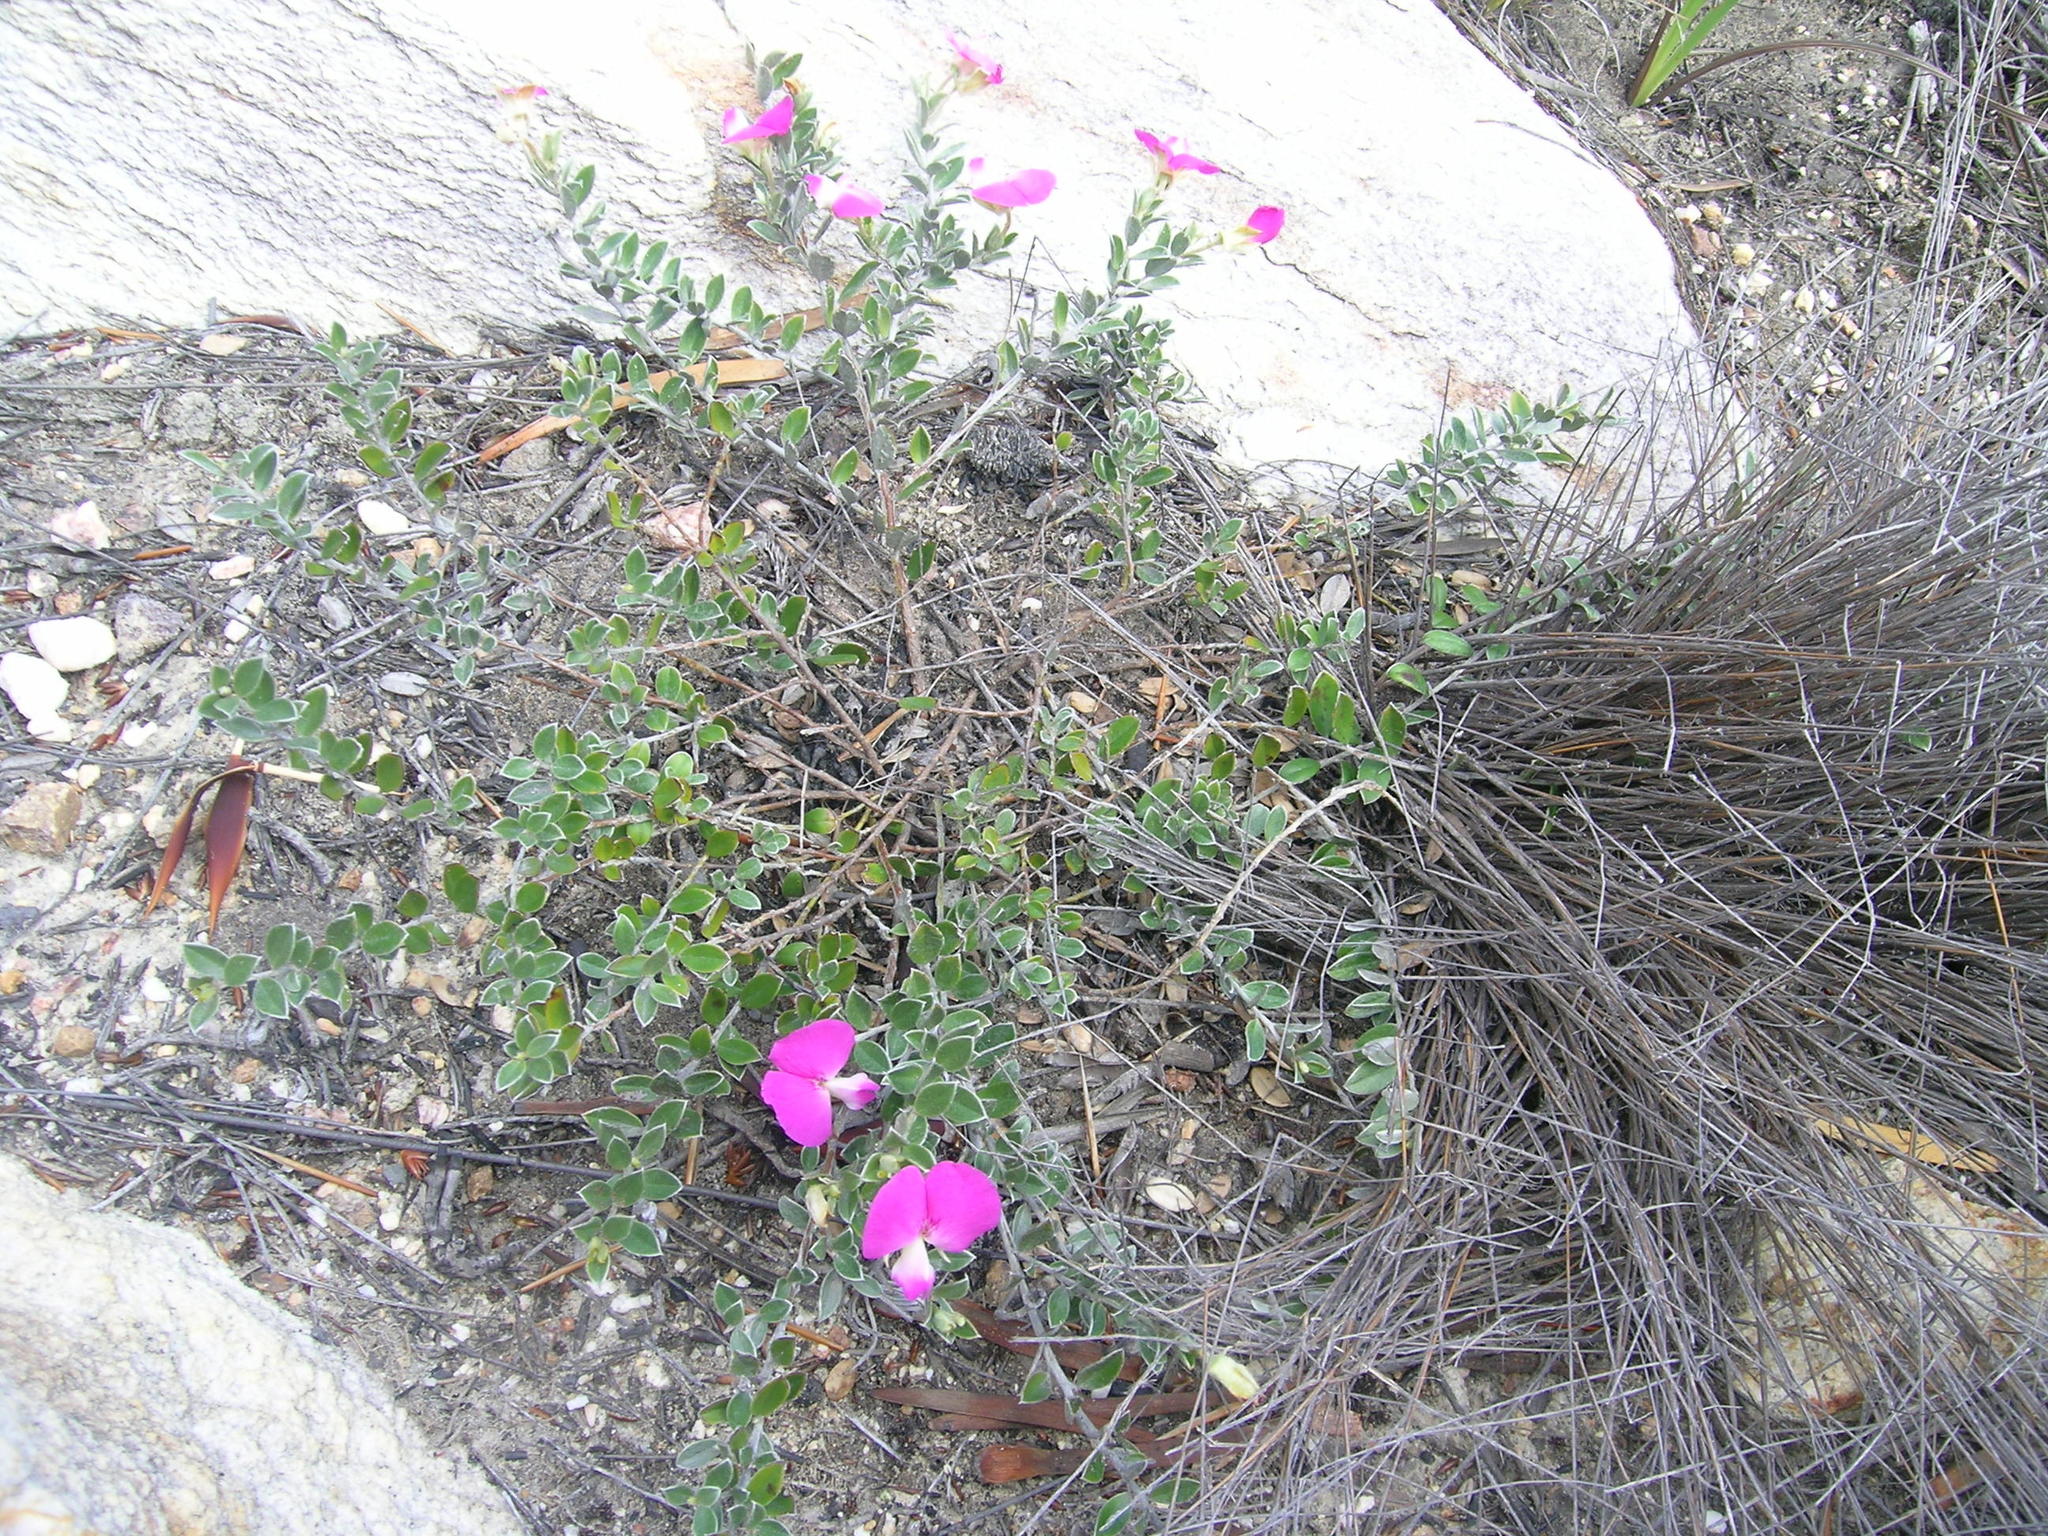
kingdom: Plantae
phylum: Tracheophyta
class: Magnoliopsida
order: Fabales
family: Fabaceae
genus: Podalyria
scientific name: Podalyria biflora
